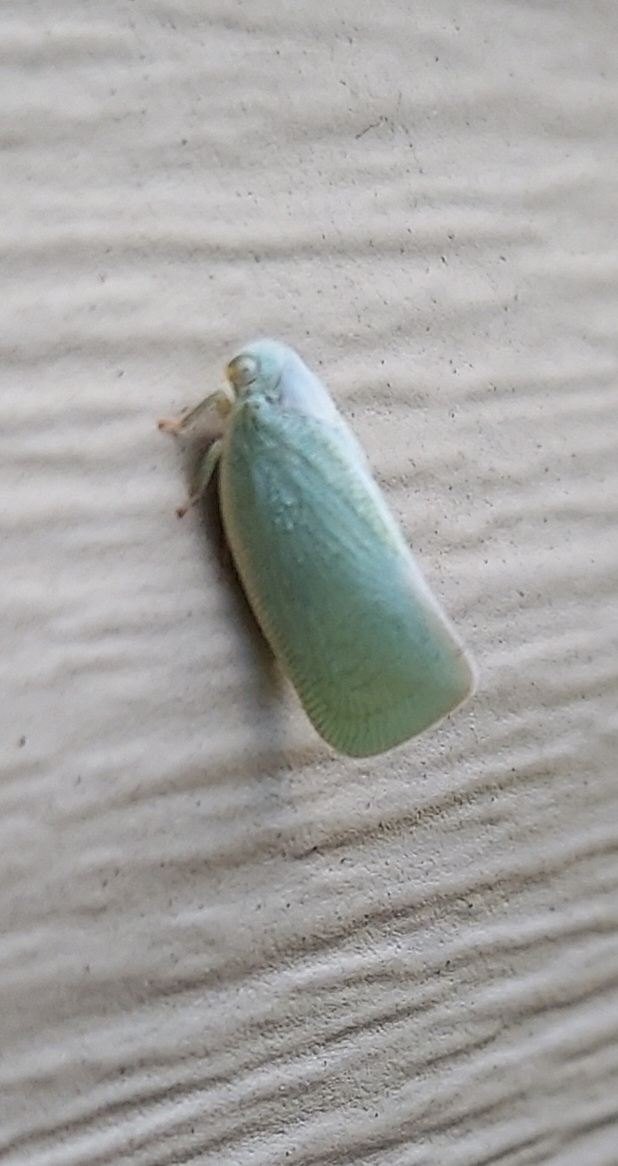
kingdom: Animalia
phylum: Arthropoda
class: Insecta
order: Hemiptera
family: Flatidae
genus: Flatormenis
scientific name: Flatormenis proxima
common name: Northern flatid planthopper
